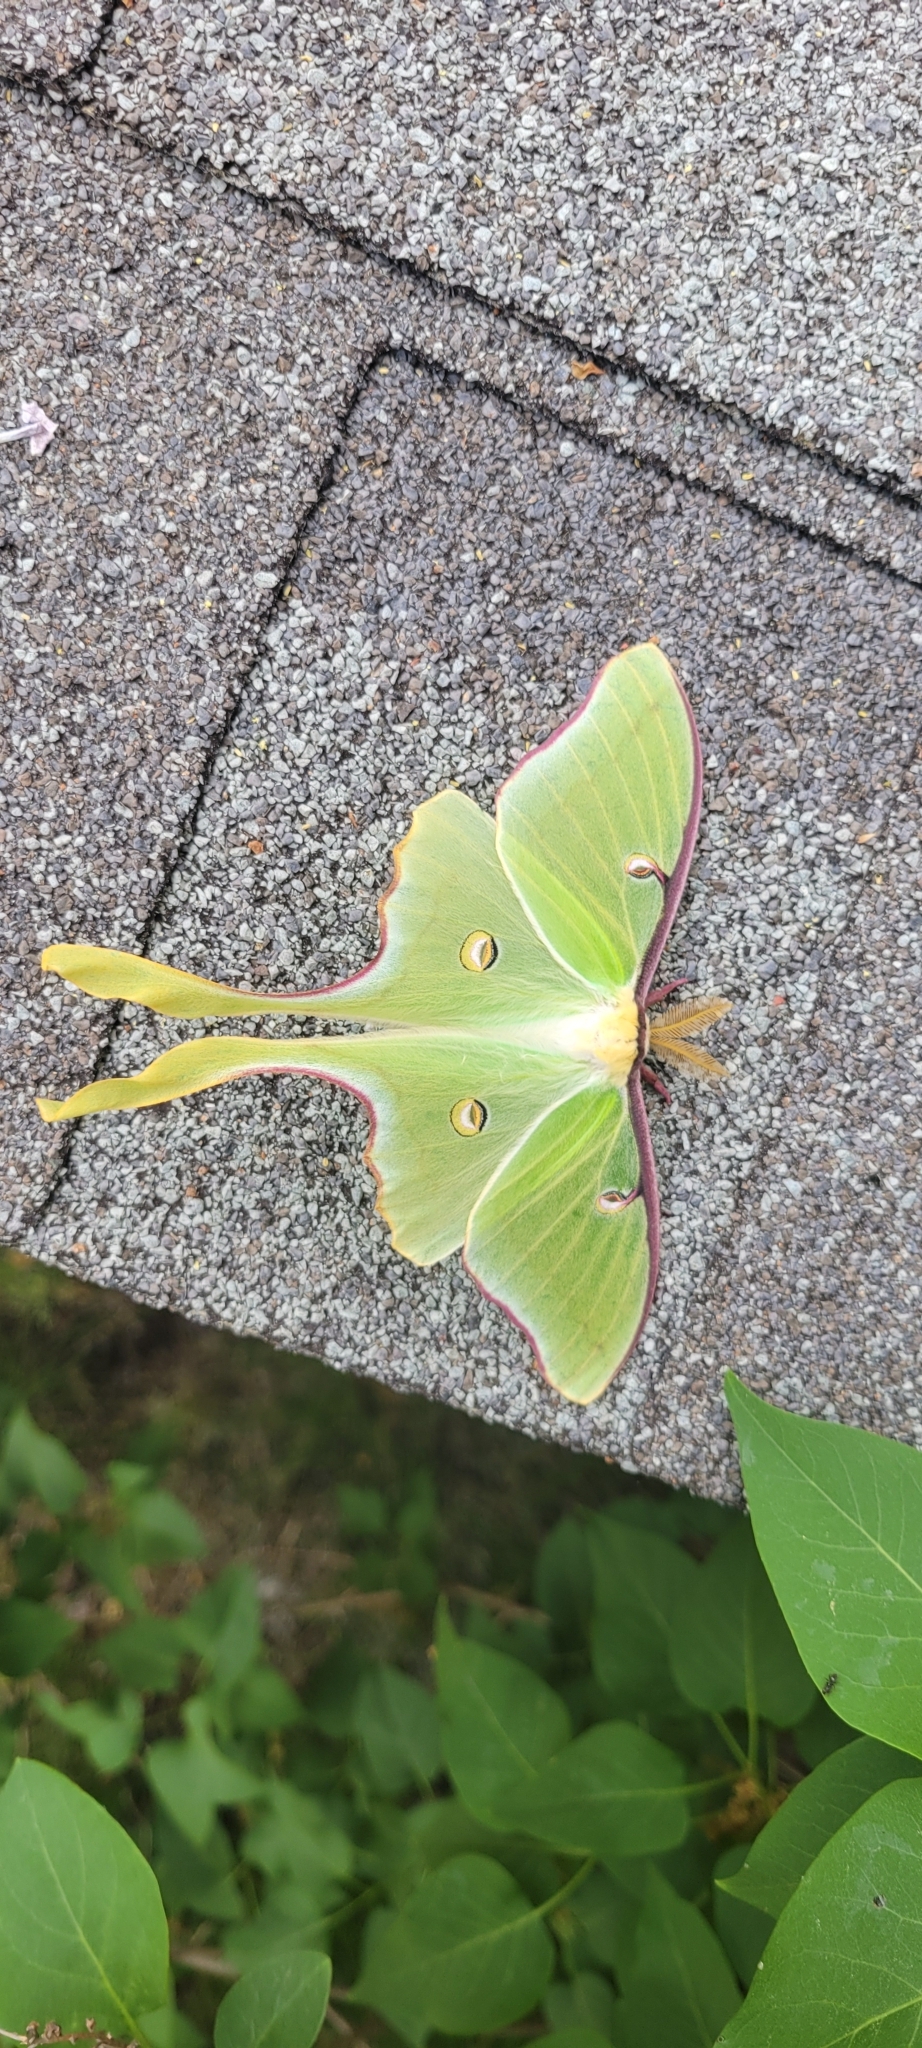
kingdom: Animalia
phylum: Arthropoda
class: Insecta
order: Lepidoptera
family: Saturniidae
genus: Actias
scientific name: Actias luna
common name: Luna moth
